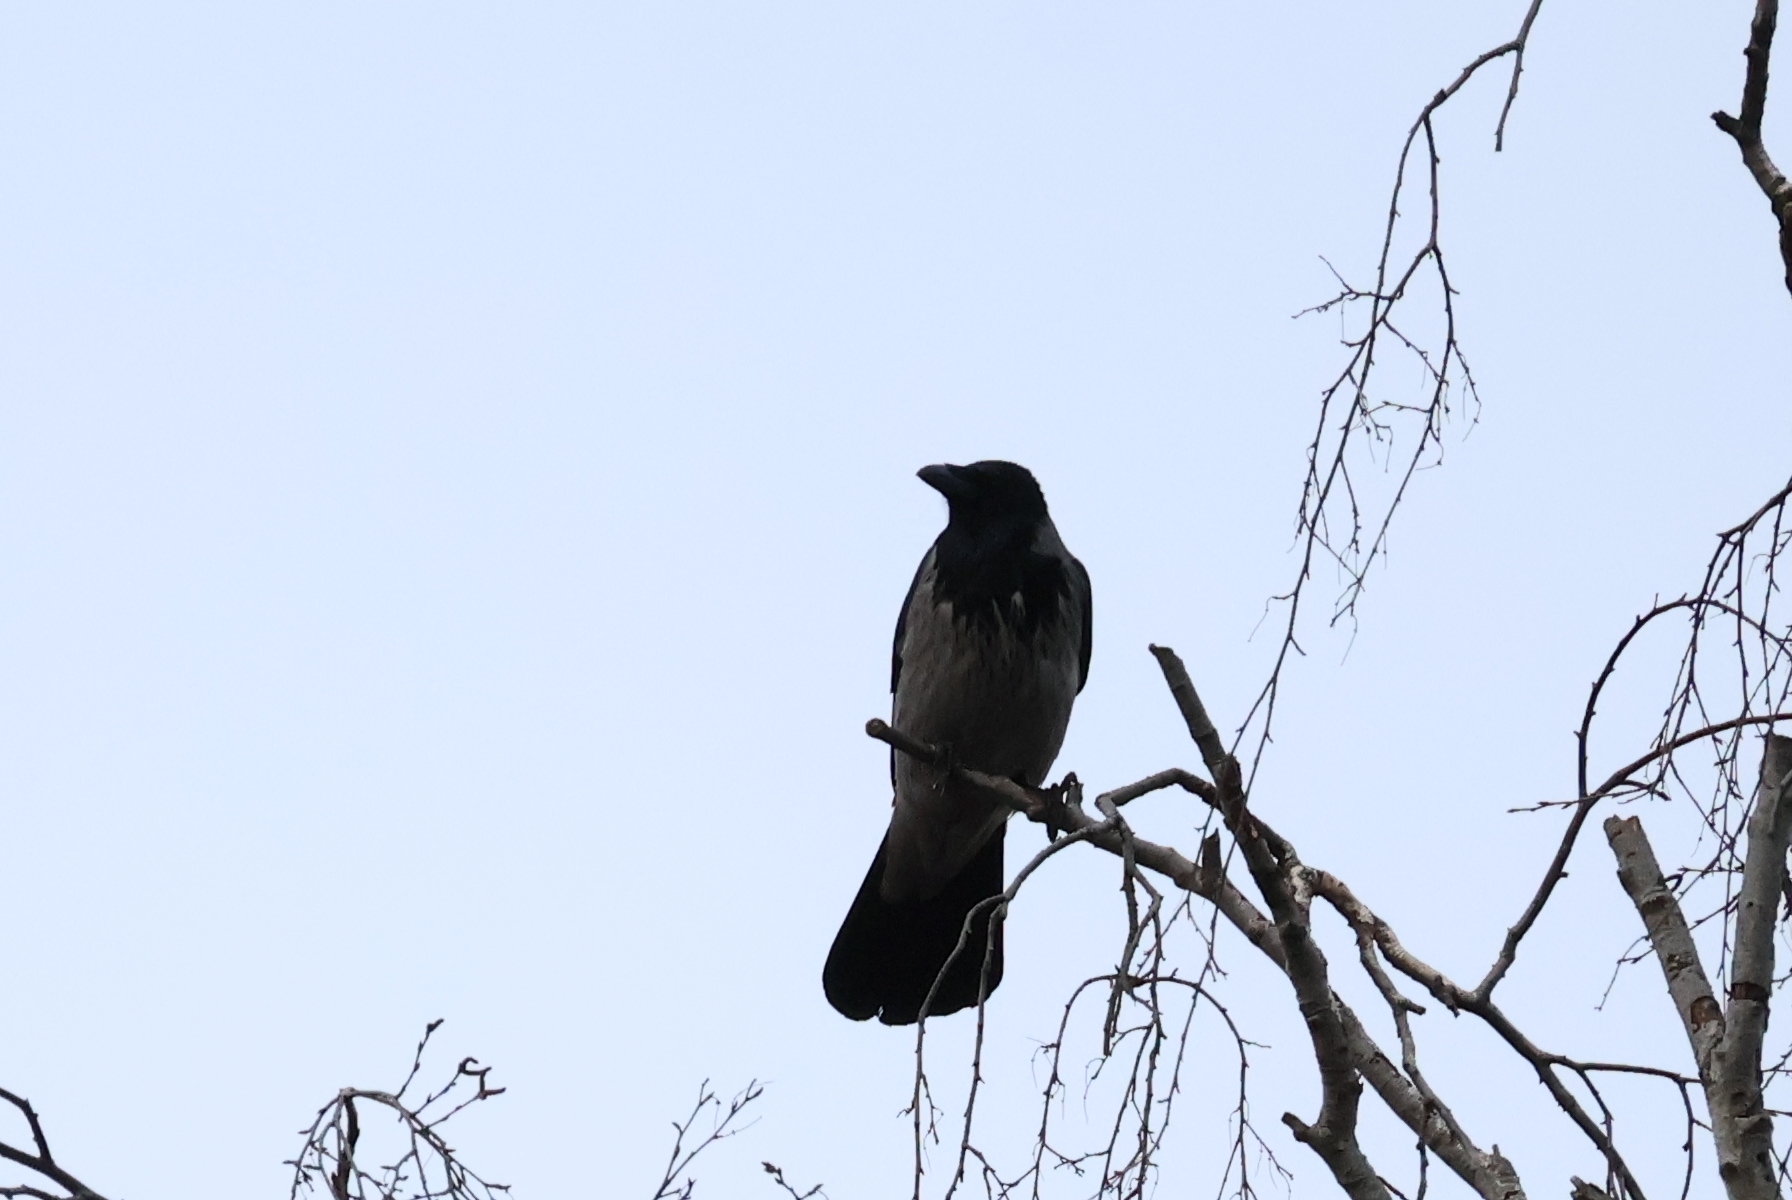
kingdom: Animalia
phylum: Chordata
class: Aves
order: Passeriformes
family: Corvidae
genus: Corvus
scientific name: Corvus cornix
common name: Hooded crow
